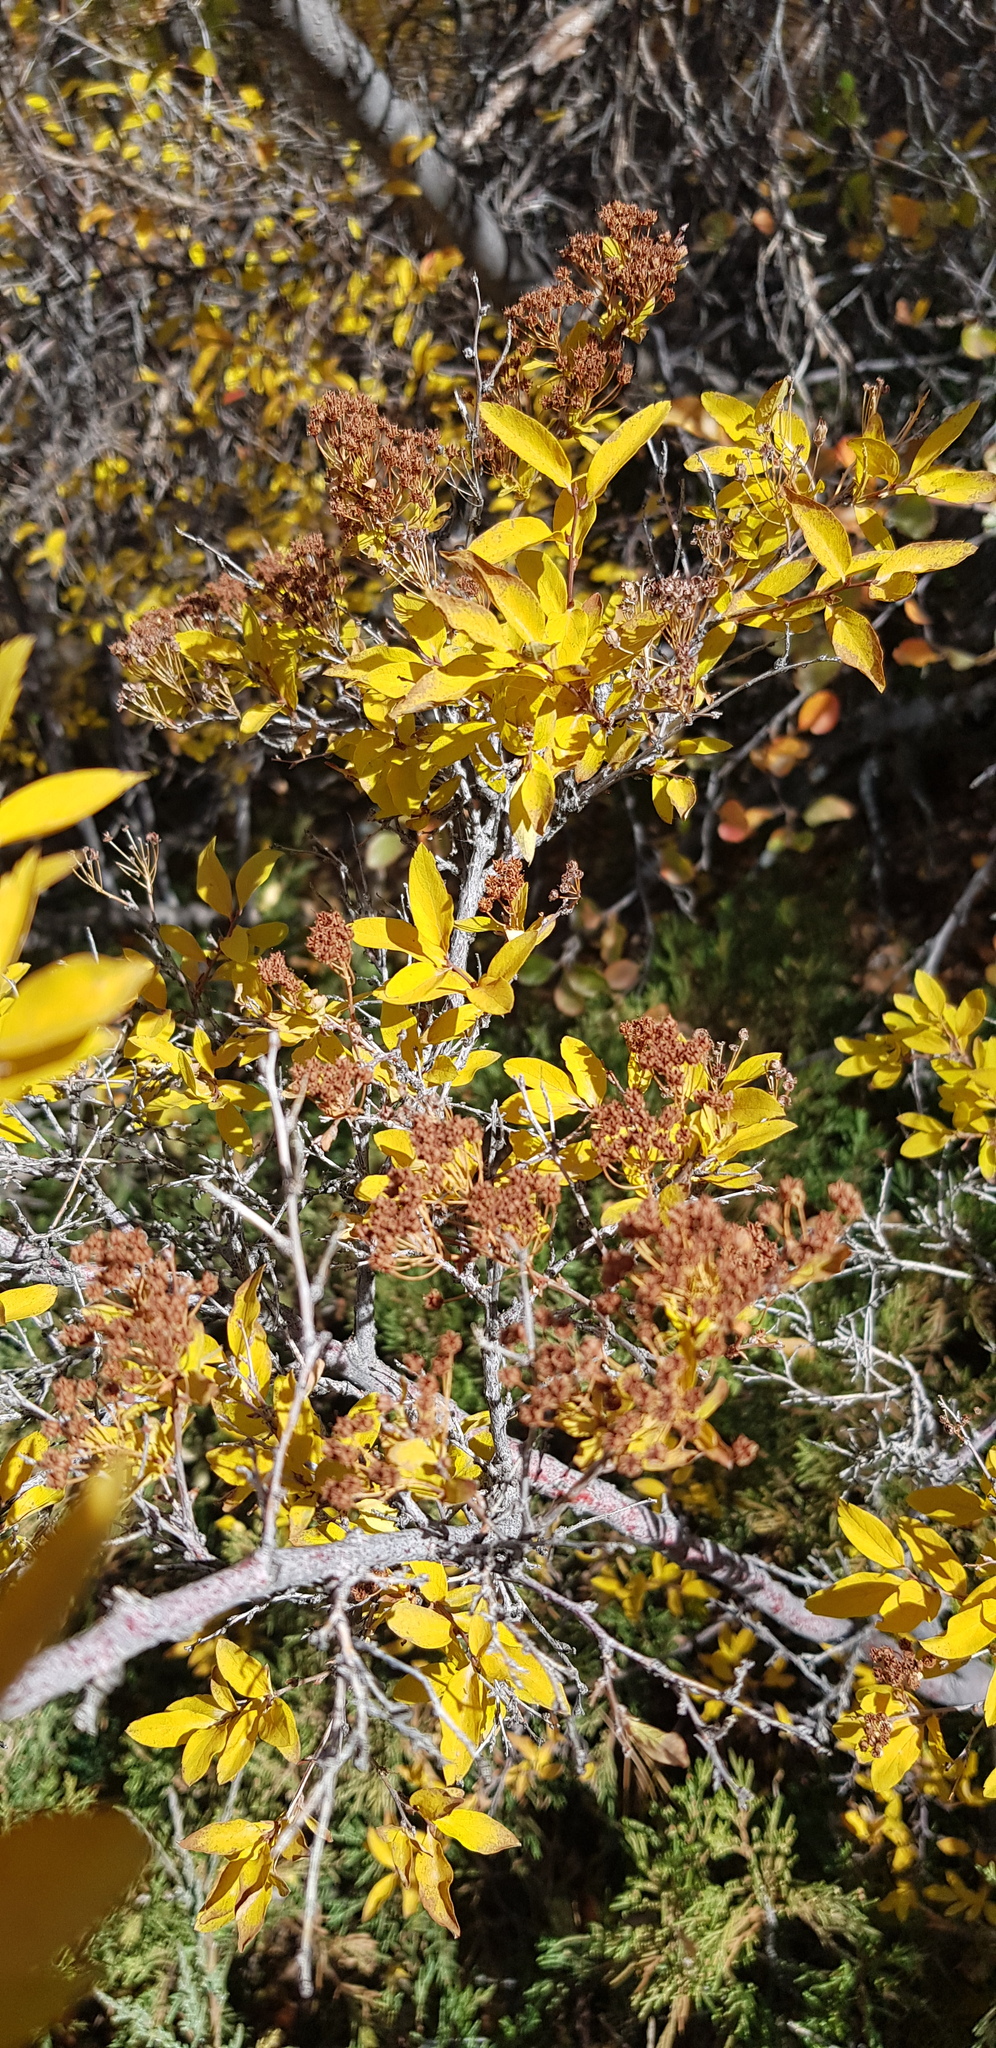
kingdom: Plantae
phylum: Tracheophyta
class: Magnoliopsida
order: Rosales
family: Rosaceae
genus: Spiraea
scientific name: Spiraea media
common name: Russian spiraea
